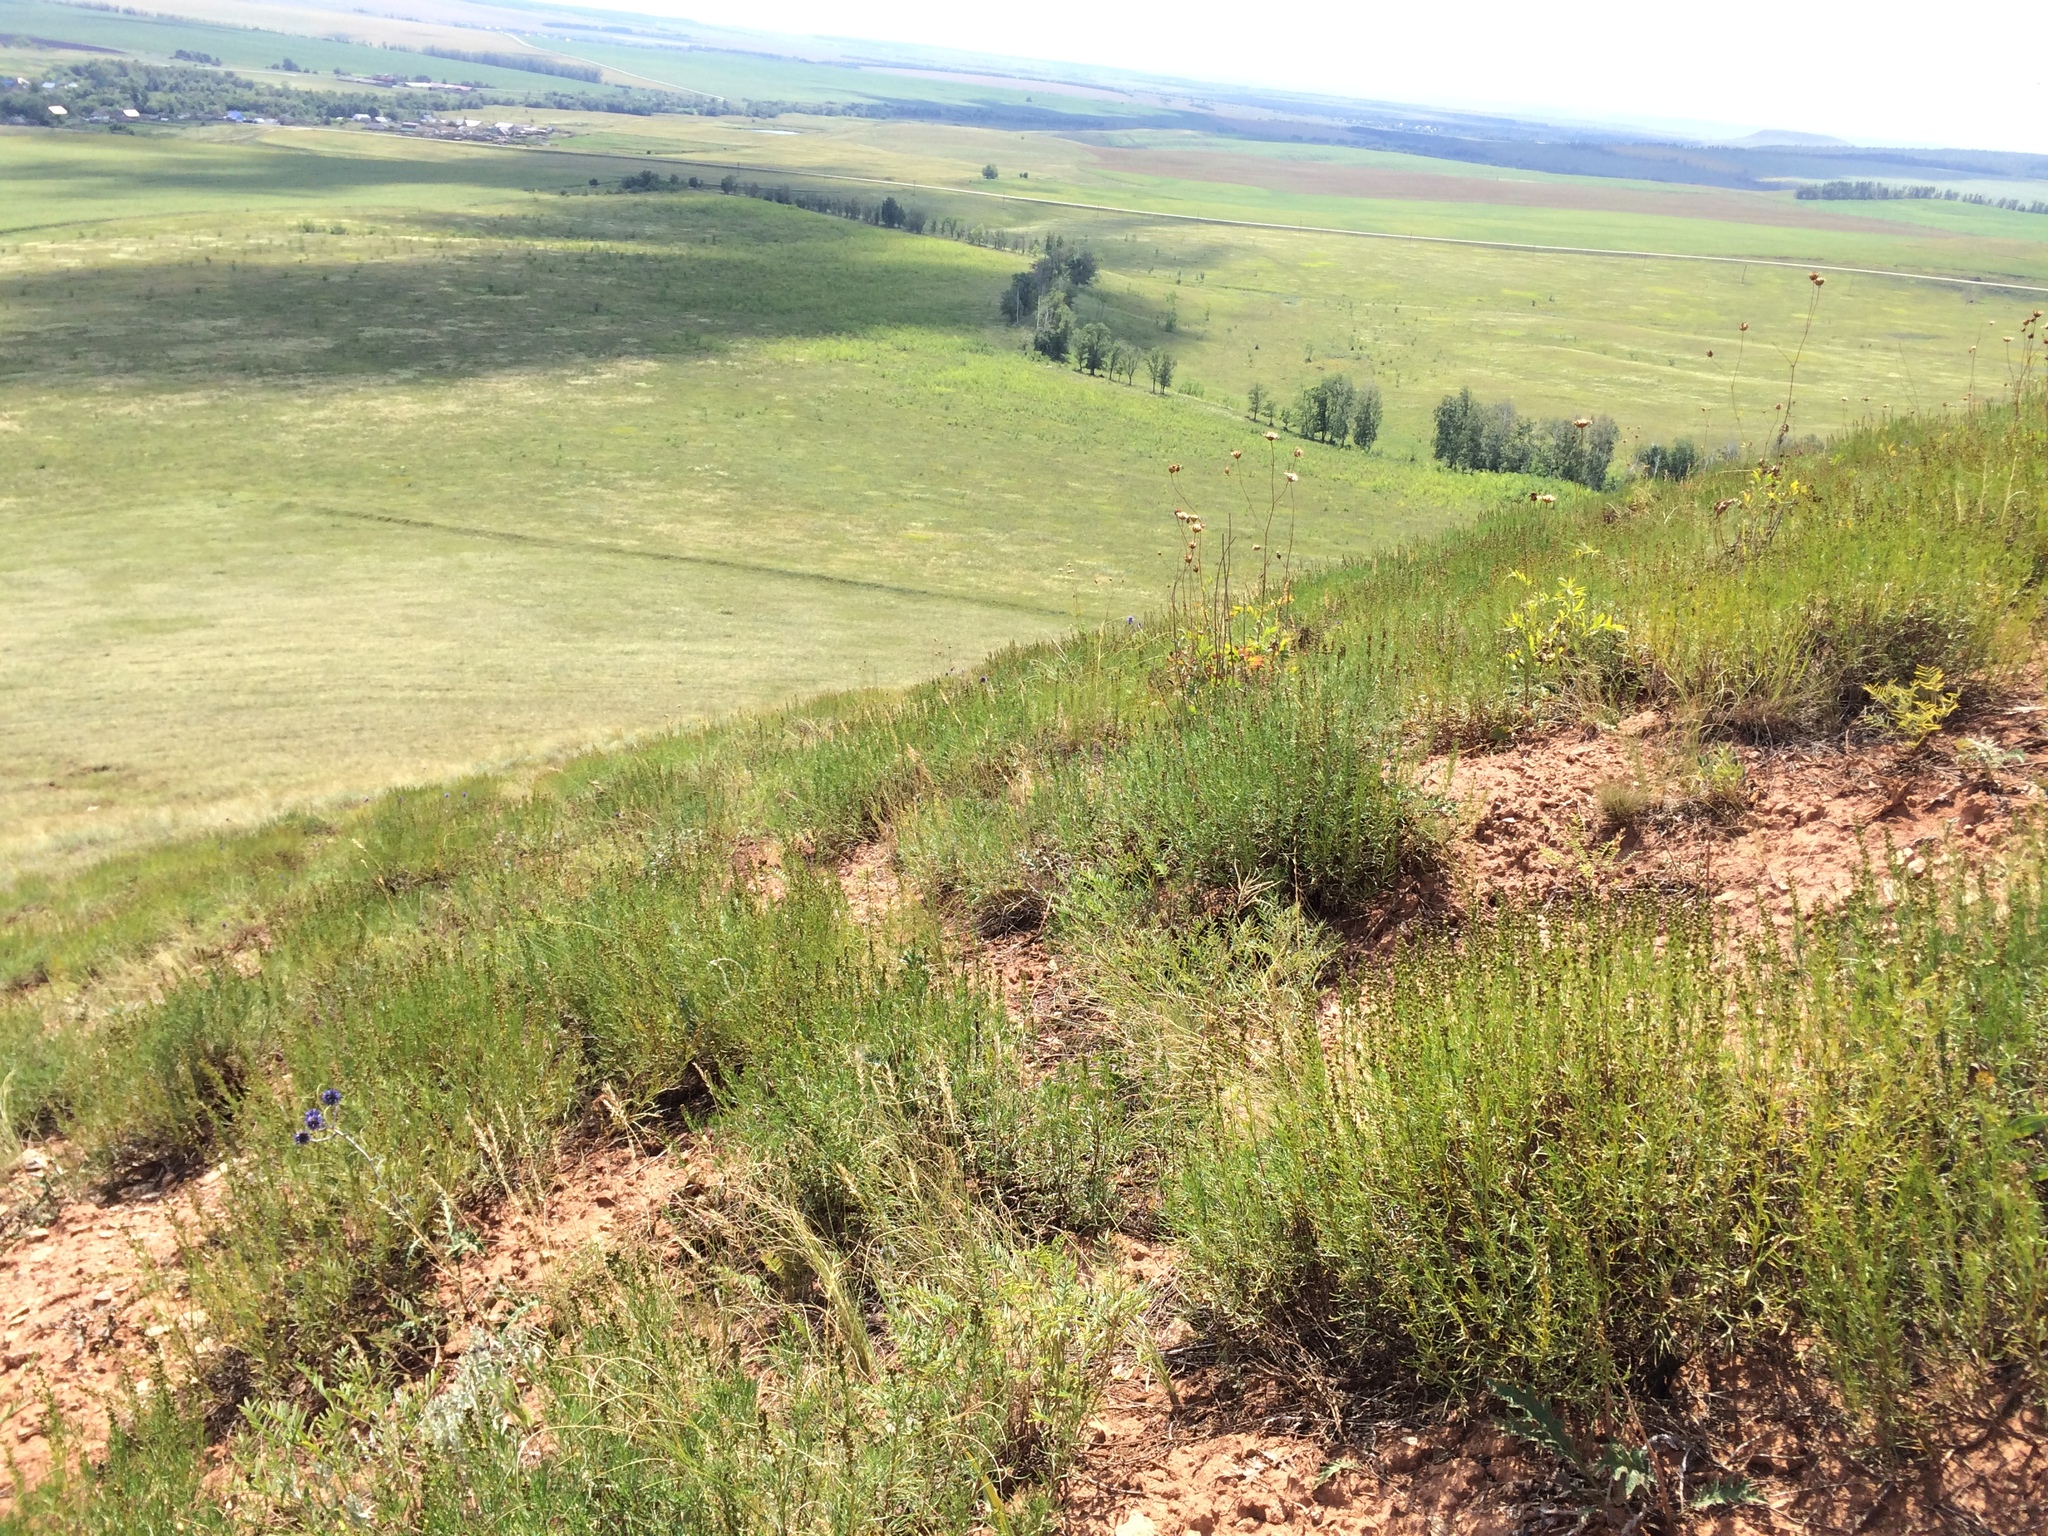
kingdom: Plantae
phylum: Tracheophyta
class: Magnoliopsida
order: Asterales
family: Asteraceae
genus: Artemisia
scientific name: Artemisia salsoloides
